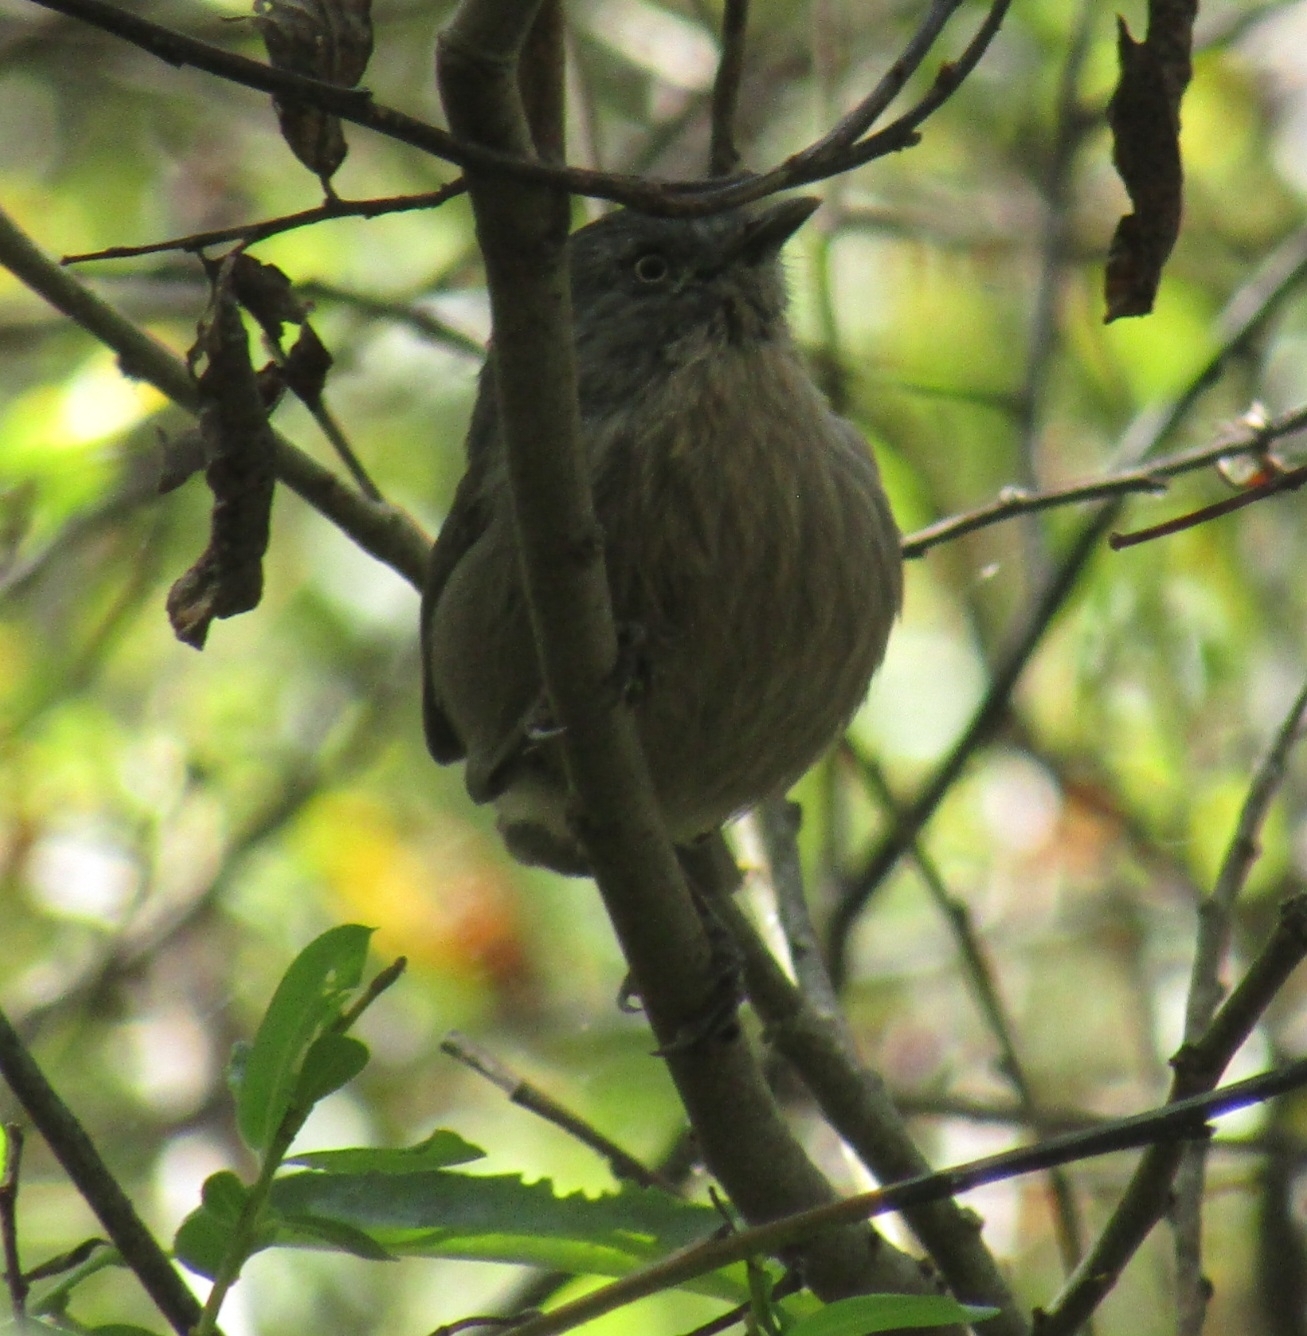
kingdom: Animalia
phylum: Chordata
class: Aves
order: Passeriformes
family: Sylviidae
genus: Chamaea
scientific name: Chamaea fasciata
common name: Wrentit
